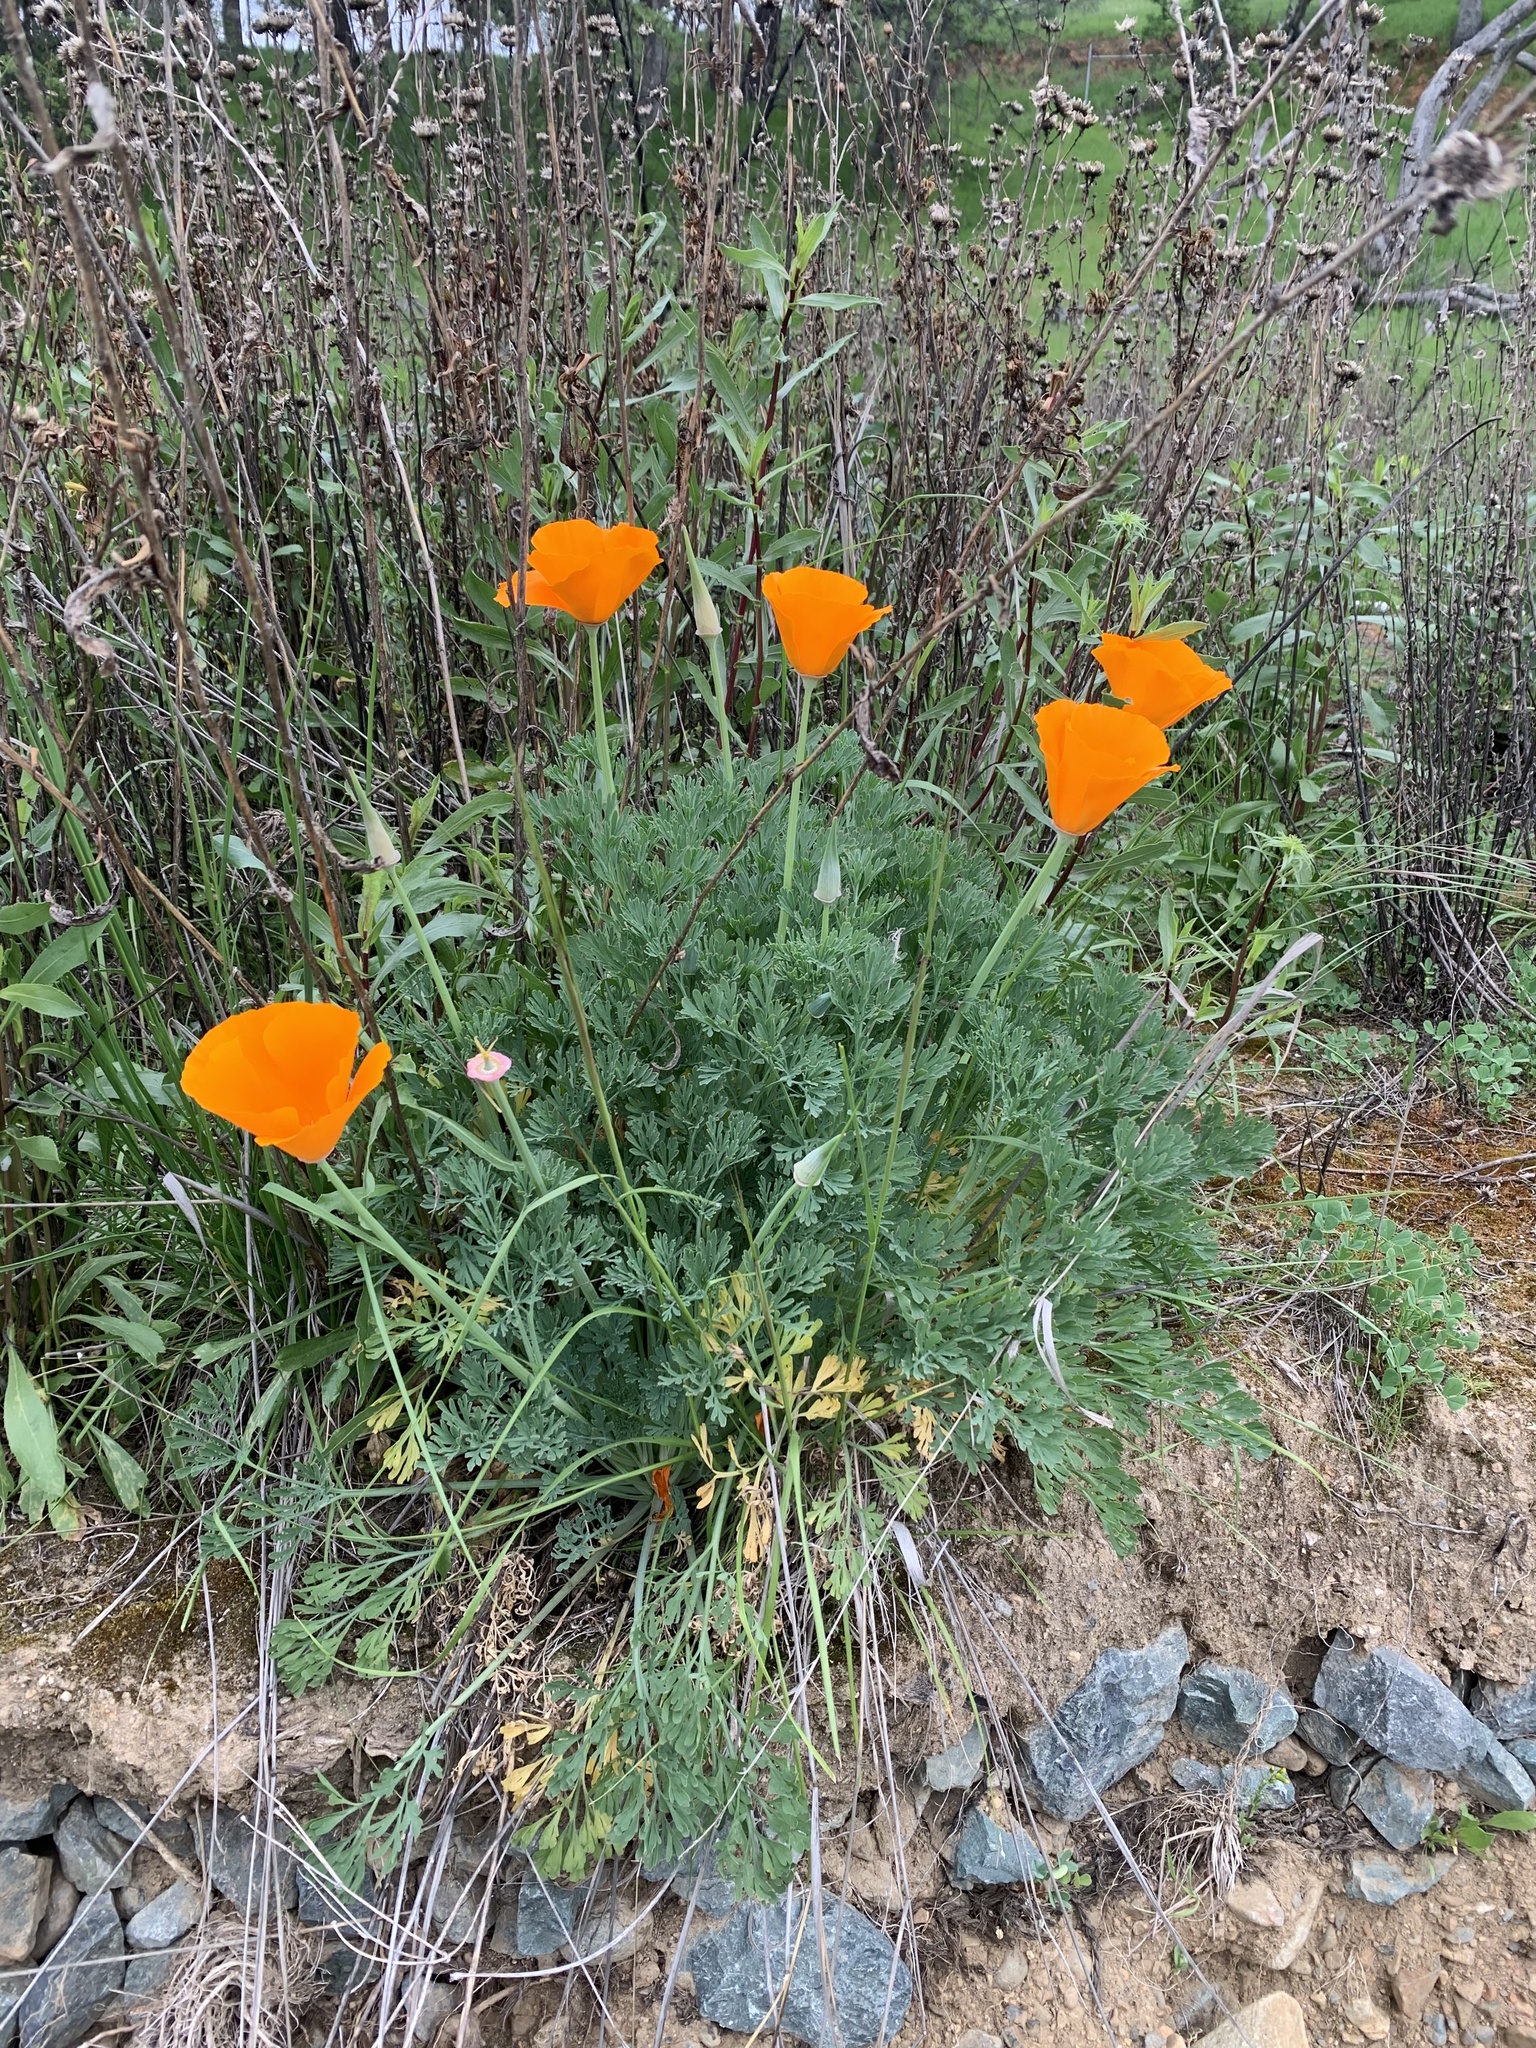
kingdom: Plantae
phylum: Tracheophyta
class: Magnoliopsida
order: Ranunculales
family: Papaveraceae
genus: Eschscholzia
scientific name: Eschscholzia californica
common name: California poppy
